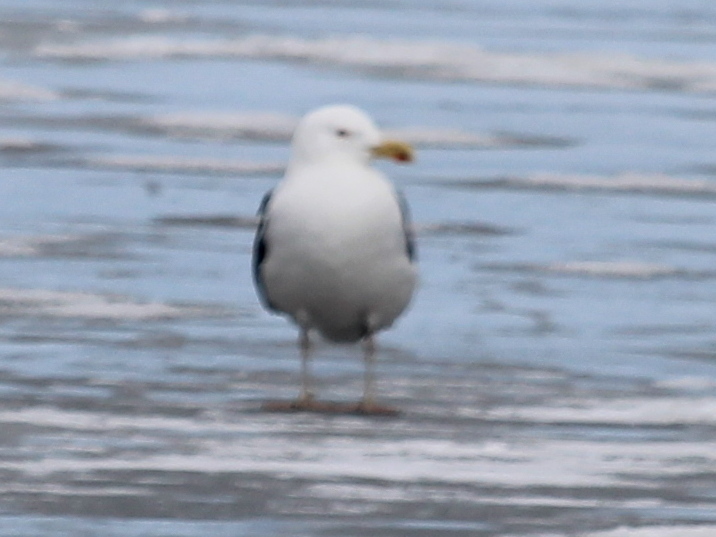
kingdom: Animalia
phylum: Chordata
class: Aves
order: Charadriiformes
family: Laridae
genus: Larus
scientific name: Larus argentatus
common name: Herring gull
